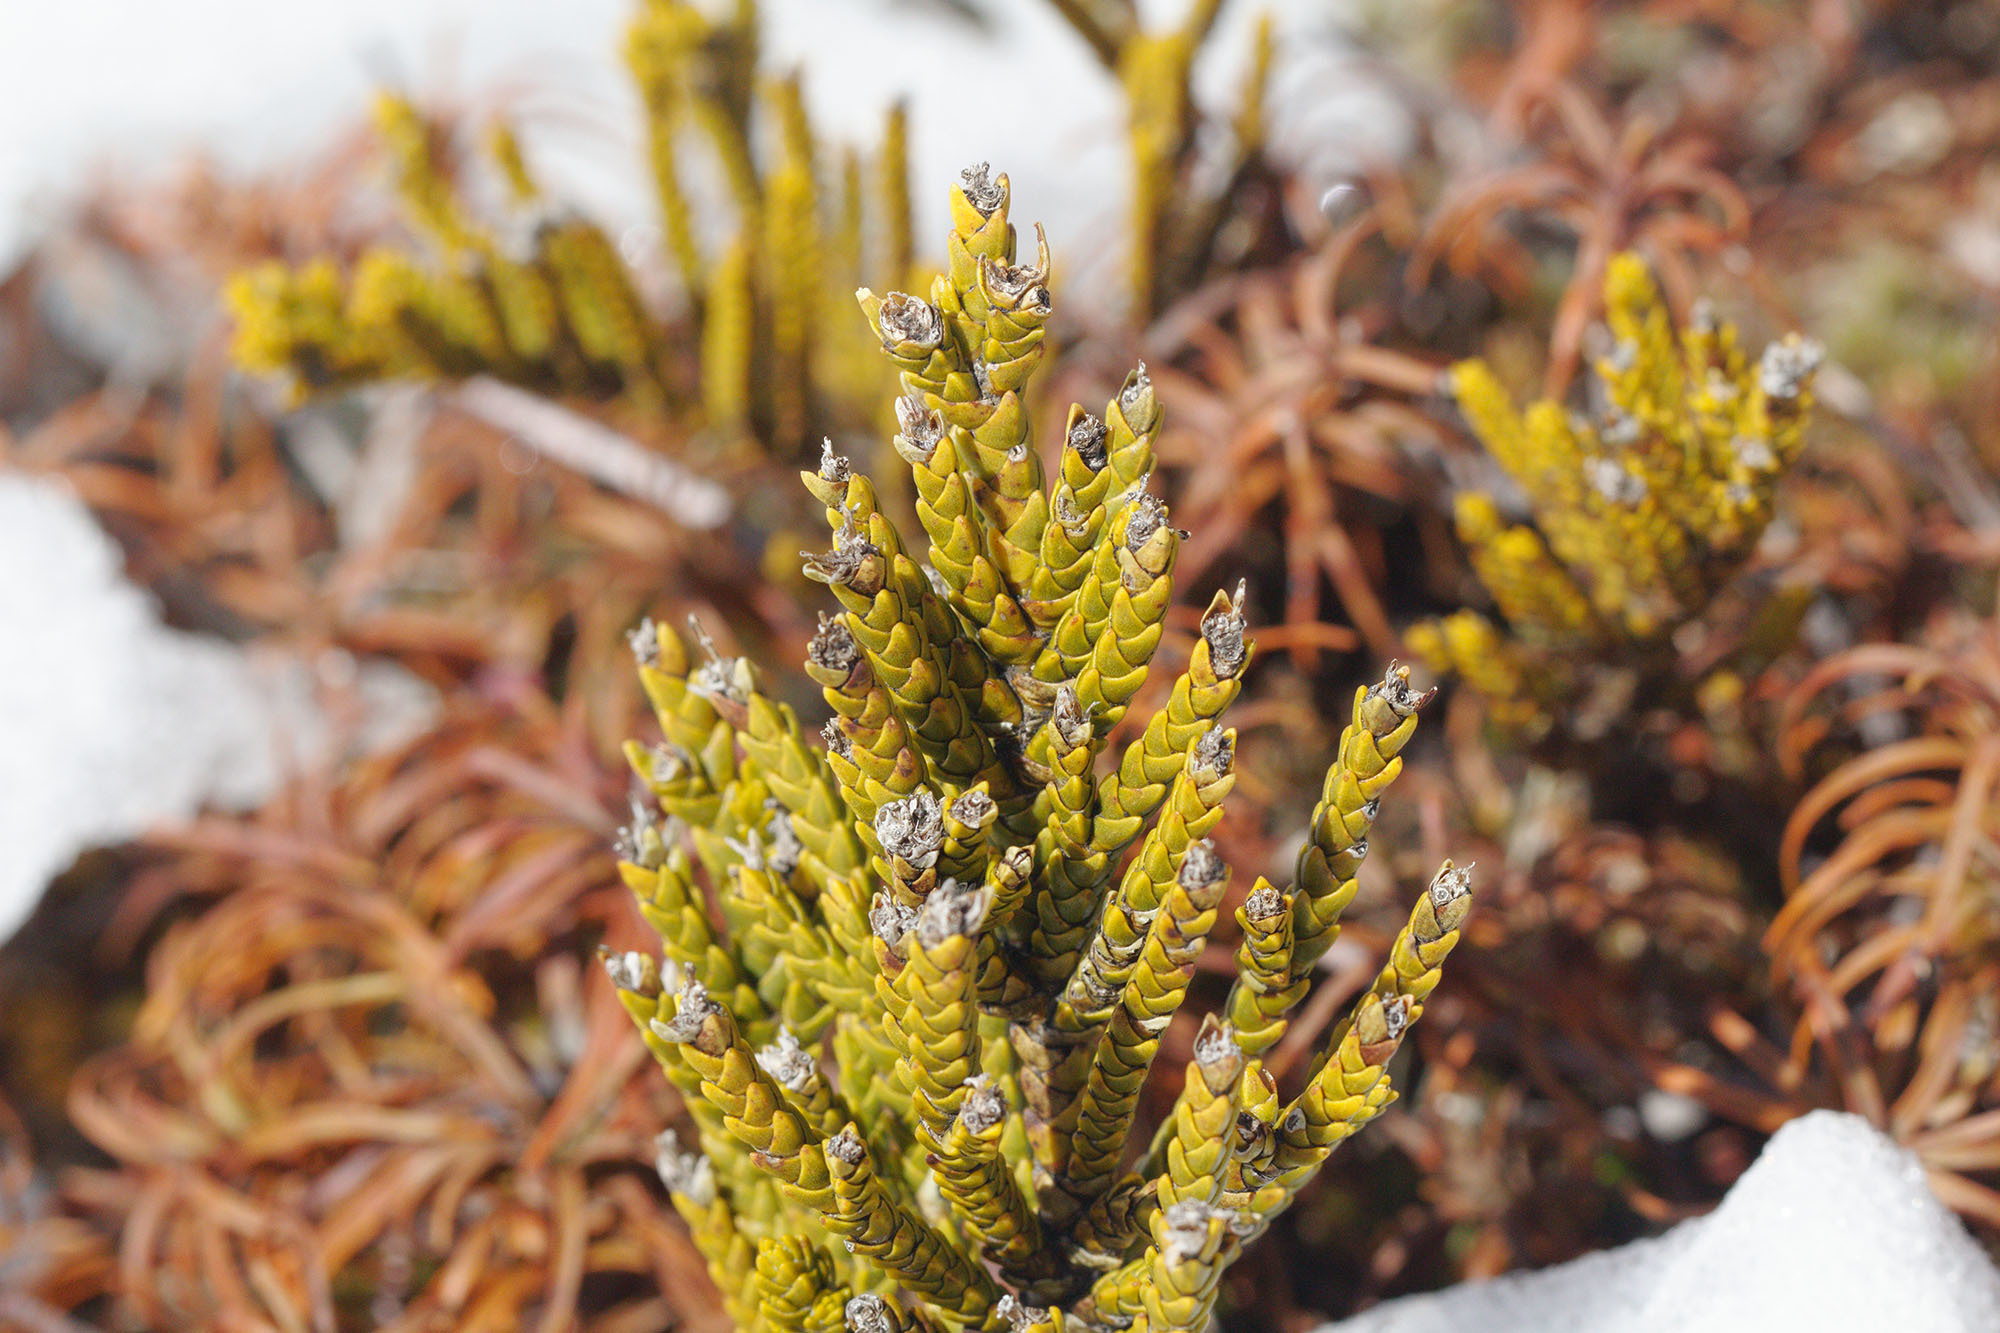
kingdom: Plantae
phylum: Tracheophyta
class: Magnoliopsida
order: Lamiales
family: Plantaginaceae
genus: Veronica
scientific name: Veronica tetragona
